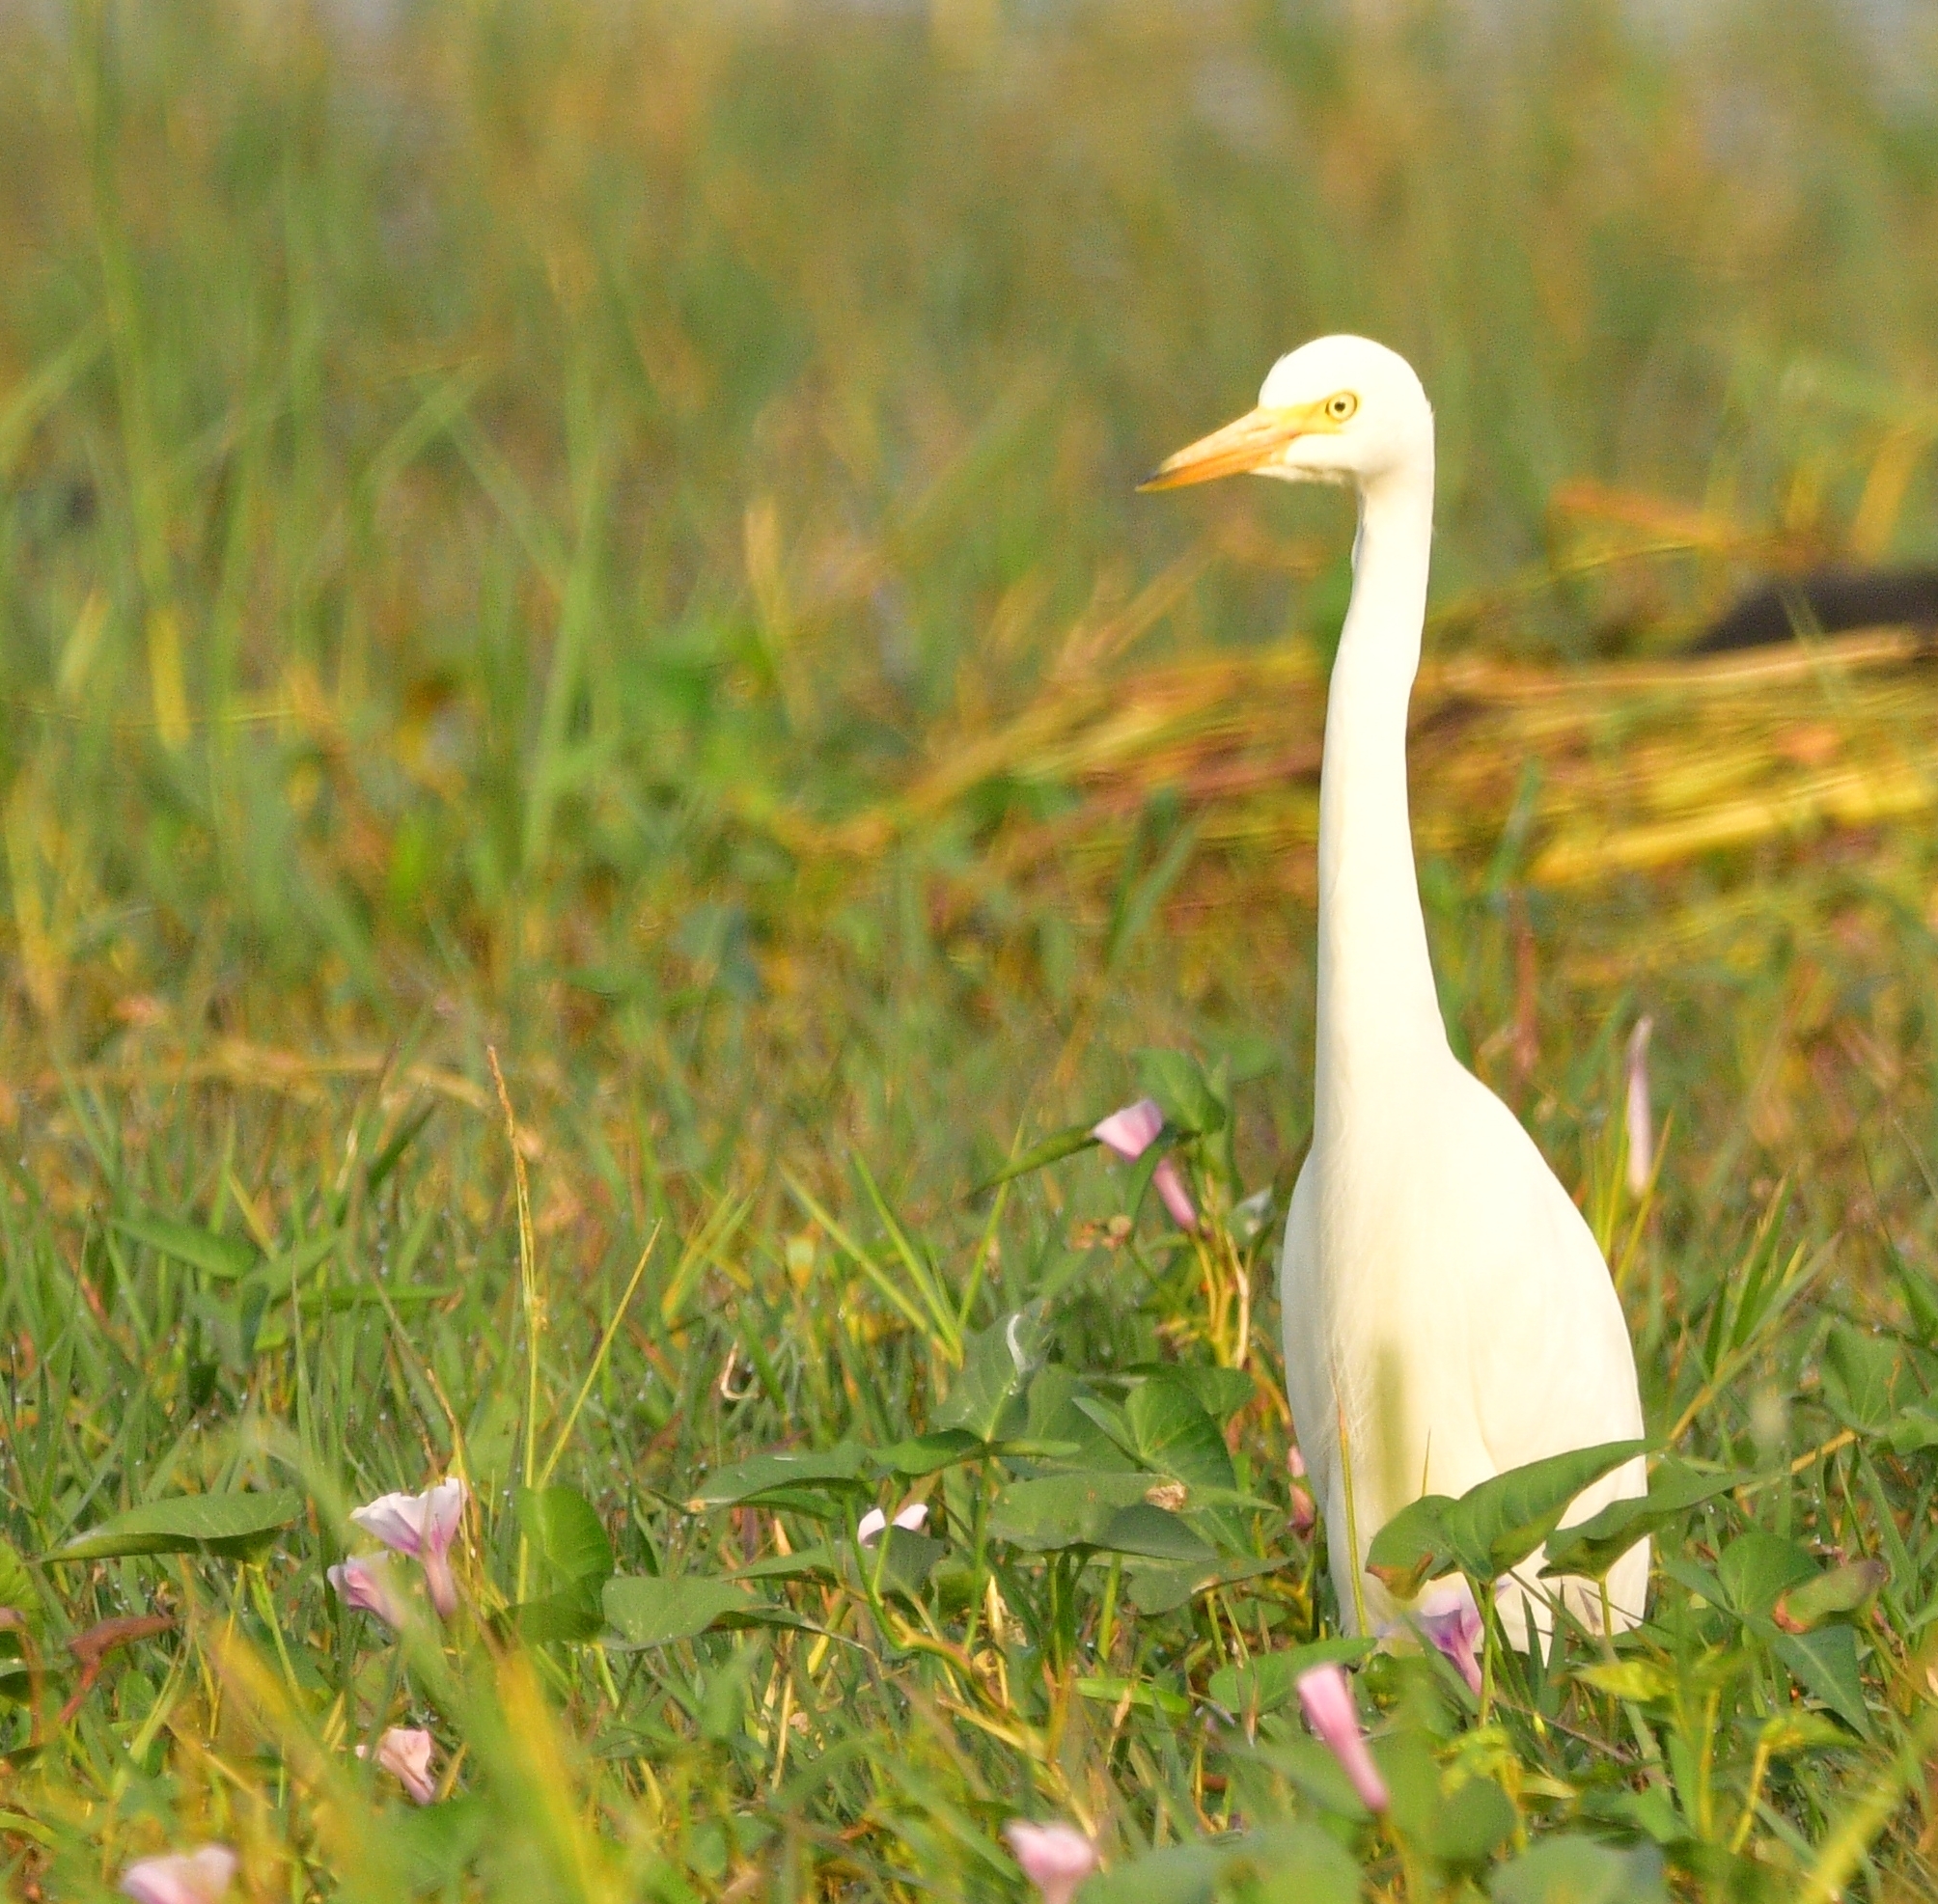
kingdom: Animalia
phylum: Chordata
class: Aves
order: Pelecaniformes
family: Ardeidae
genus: Egretta
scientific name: Egretta intermedia
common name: Intermediate egret
